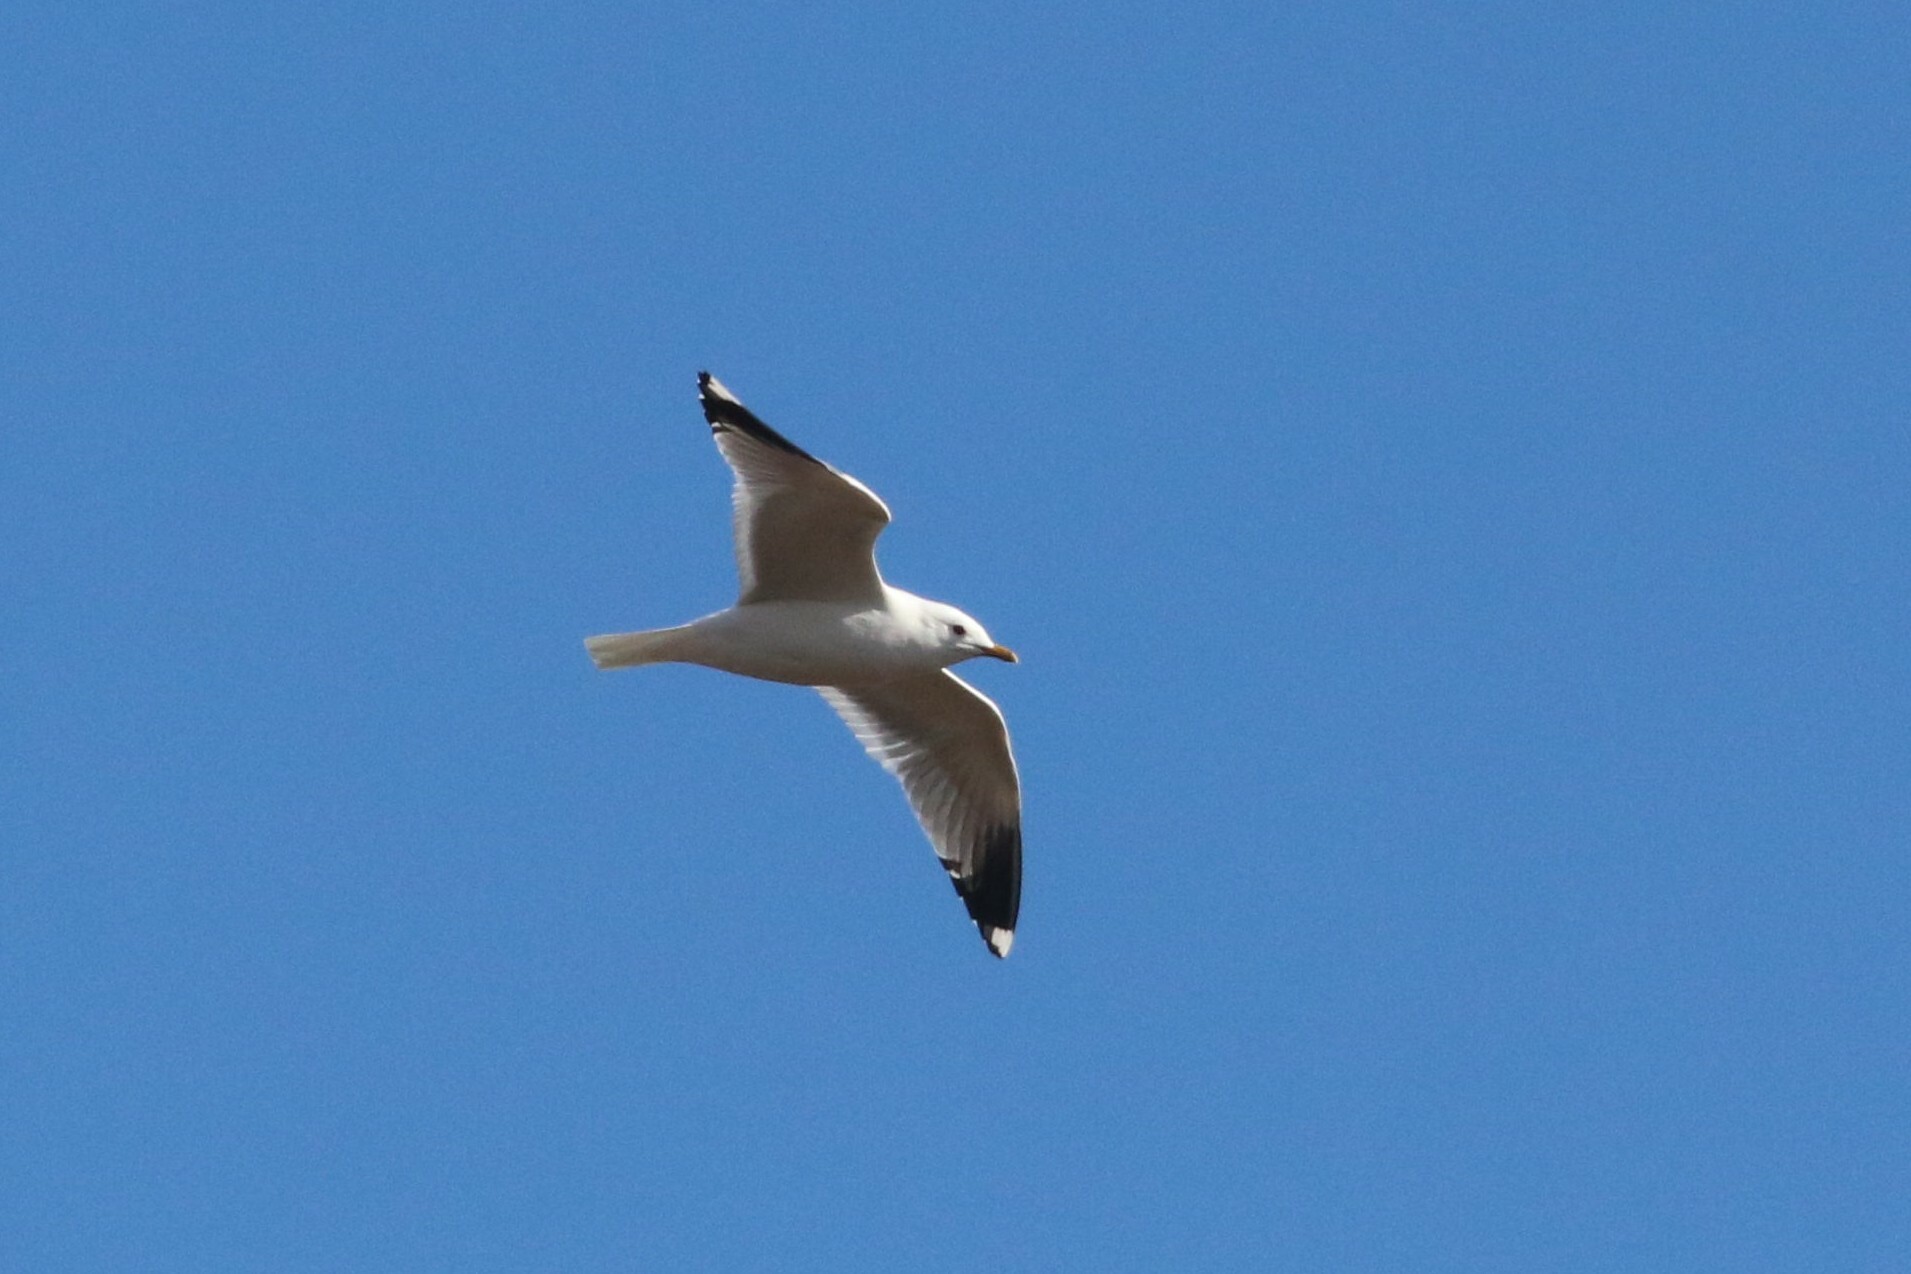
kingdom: Animalia
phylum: Chordata
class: Aves
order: Charadriiformes
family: Laridae
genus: Larus
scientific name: Larus canus
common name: Mew gull
